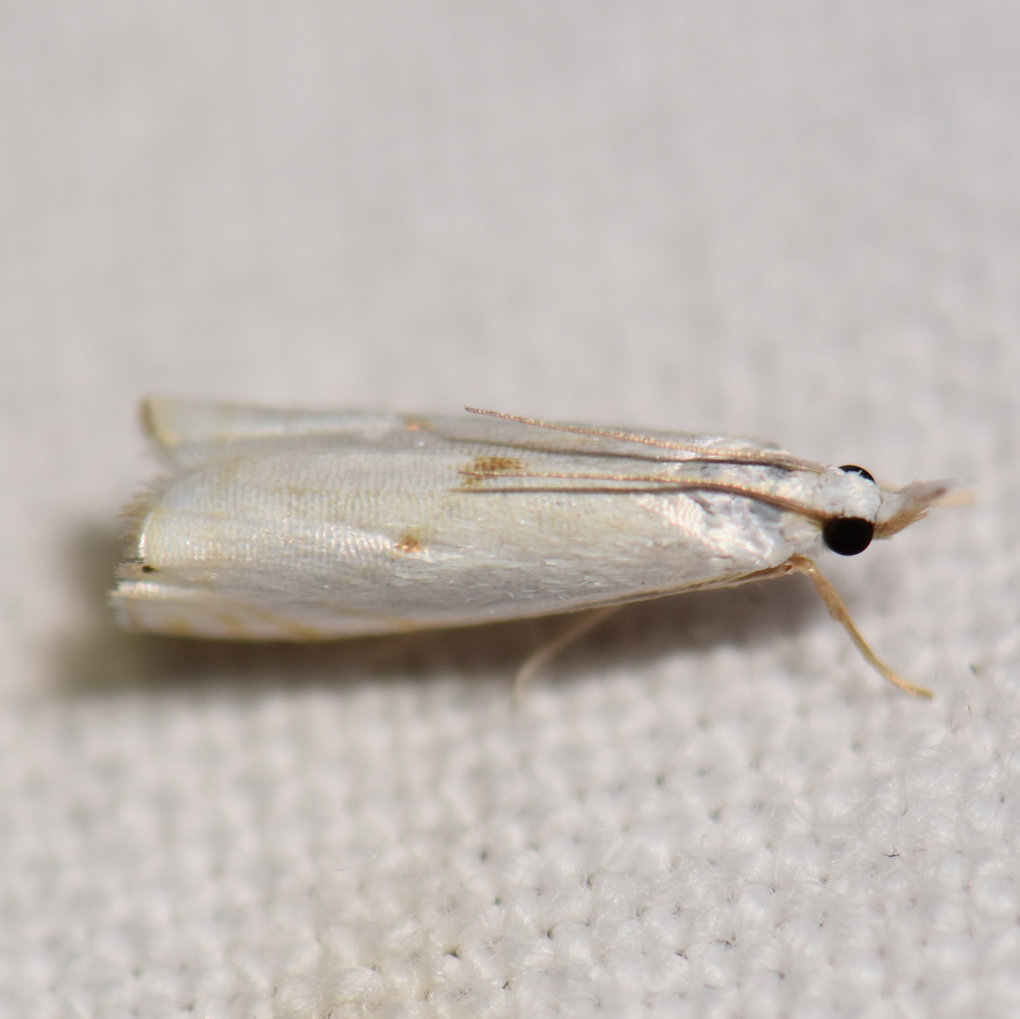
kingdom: Animalia
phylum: Arthropoda
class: Insecta
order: Lepidoptera
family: Crambidae
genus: Microcrambus
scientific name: Microcrambus biguttellus
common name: Gold-stripe grass-veneer moth
